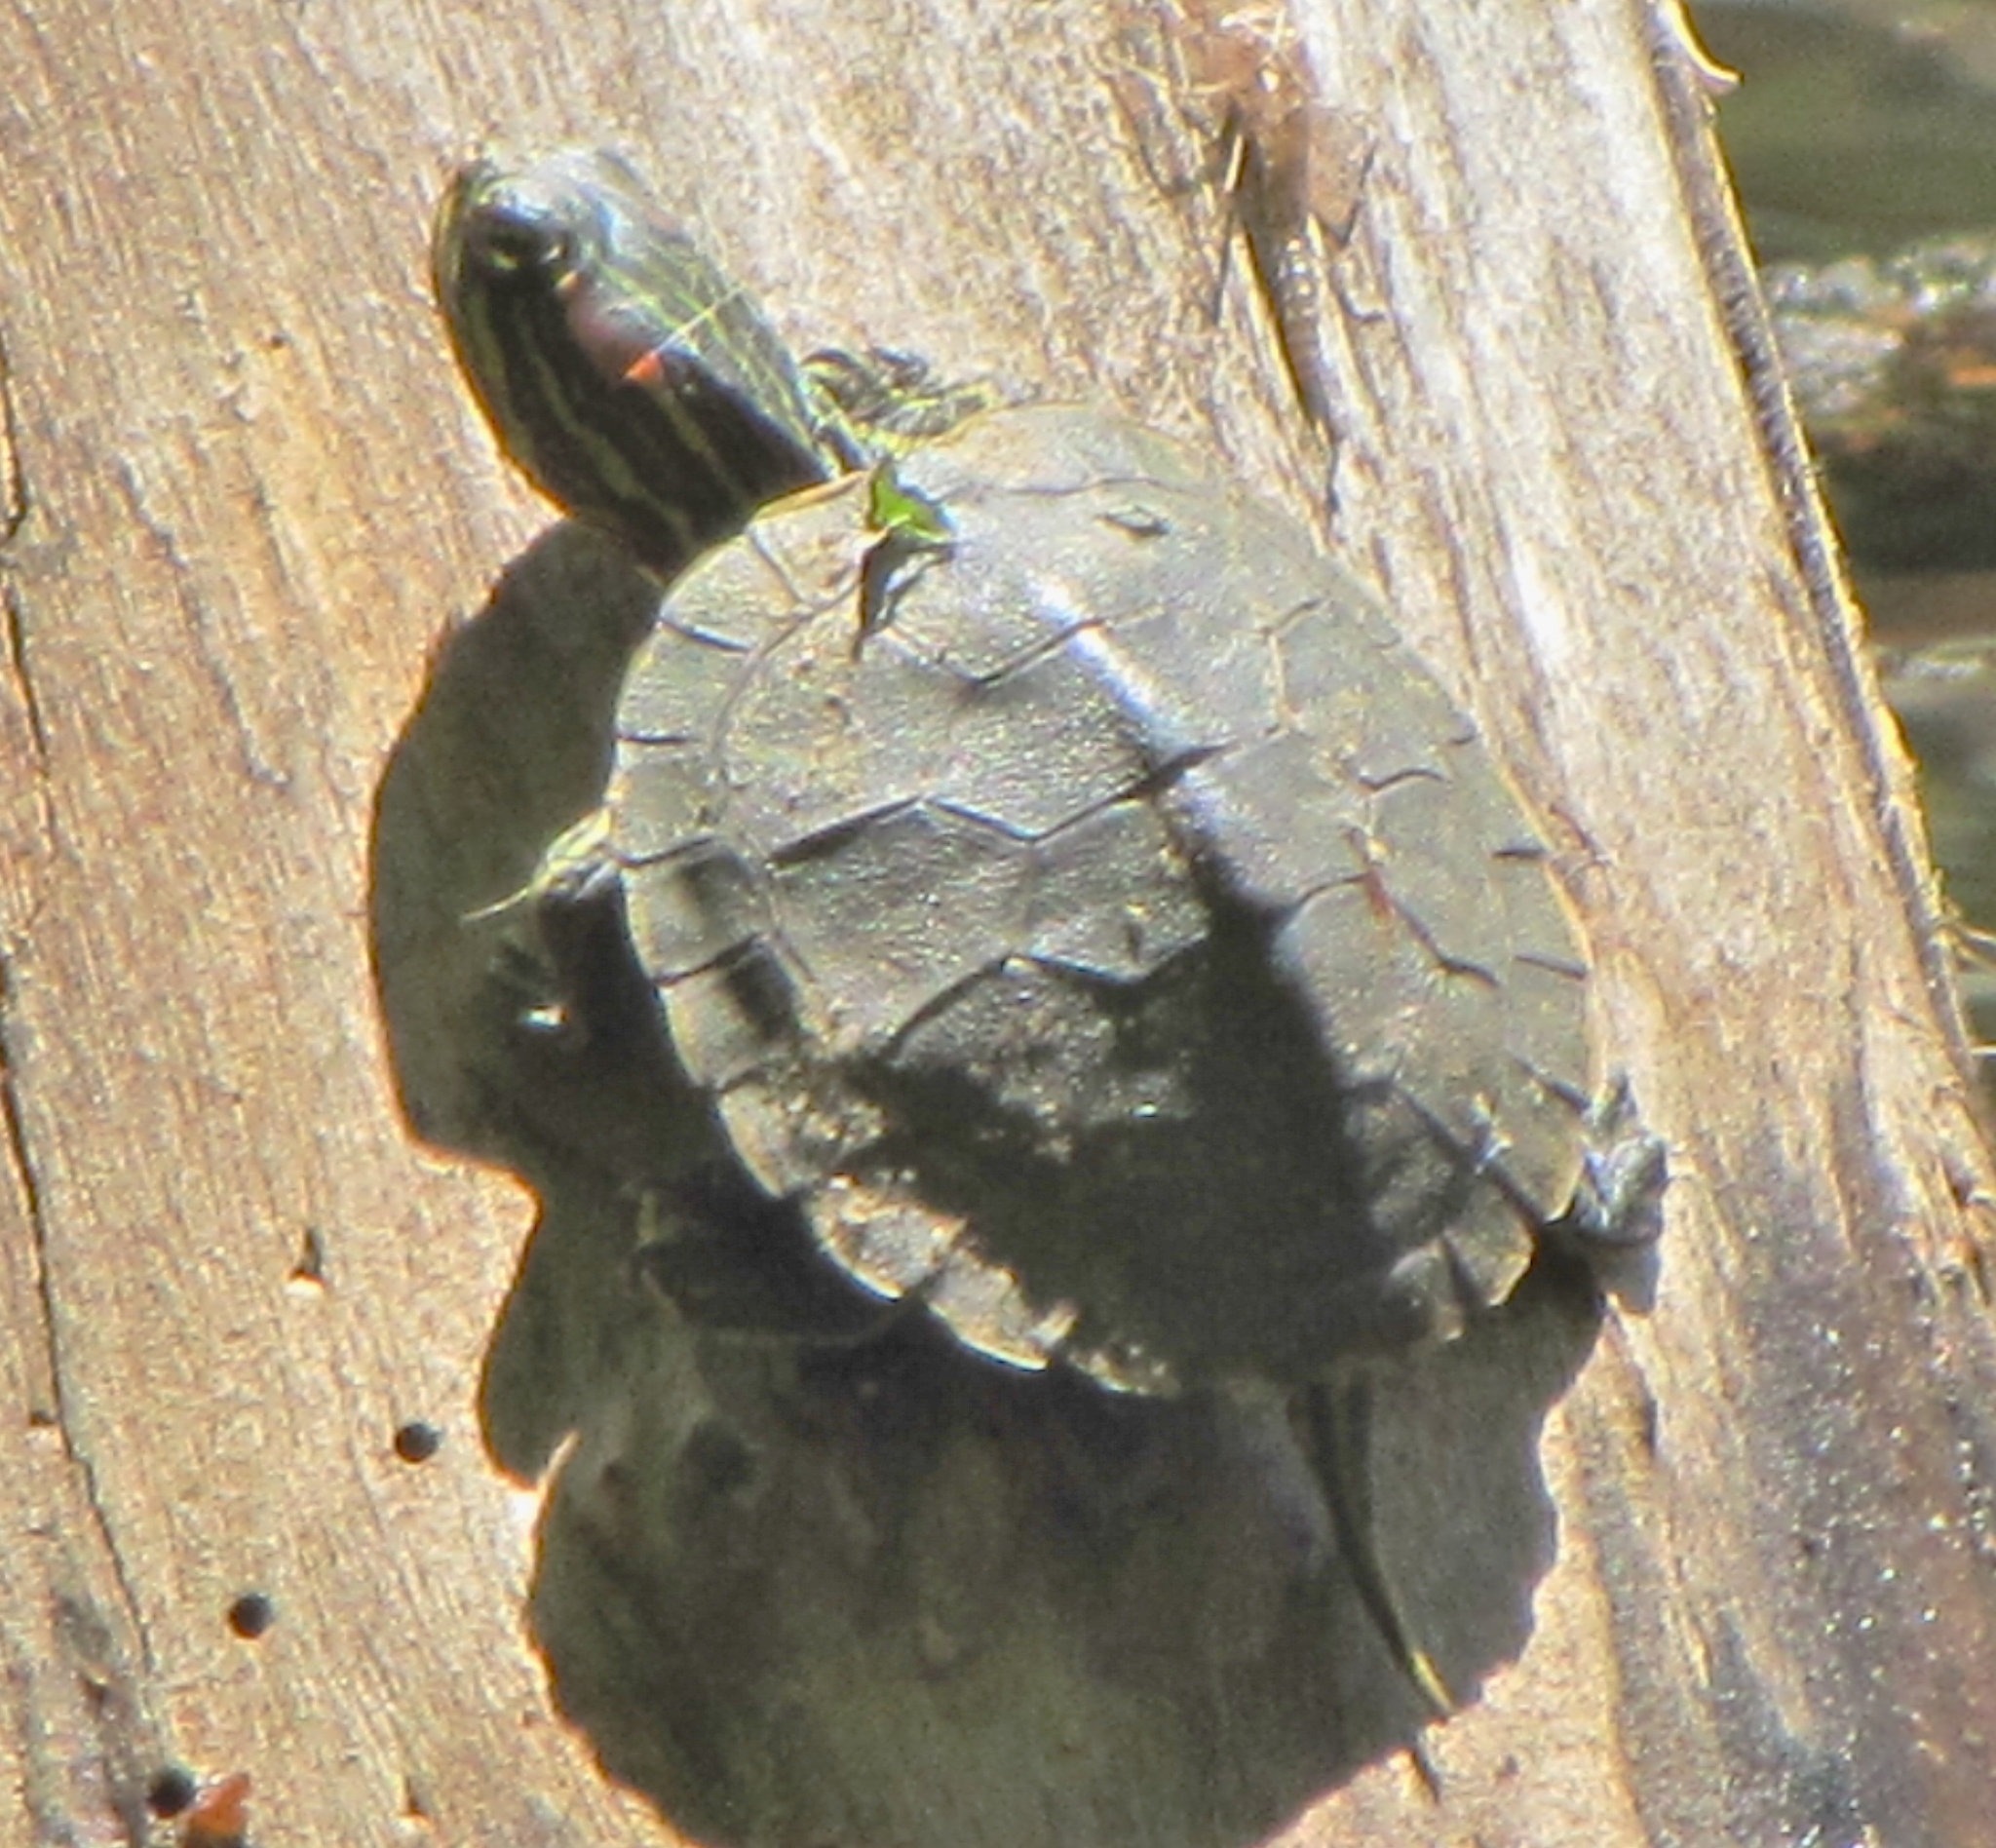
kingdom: Animalia
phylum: Chordata
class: Testudines
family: Emydidae
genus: Trachemys
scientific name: Trachemys scripta
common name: Slider
